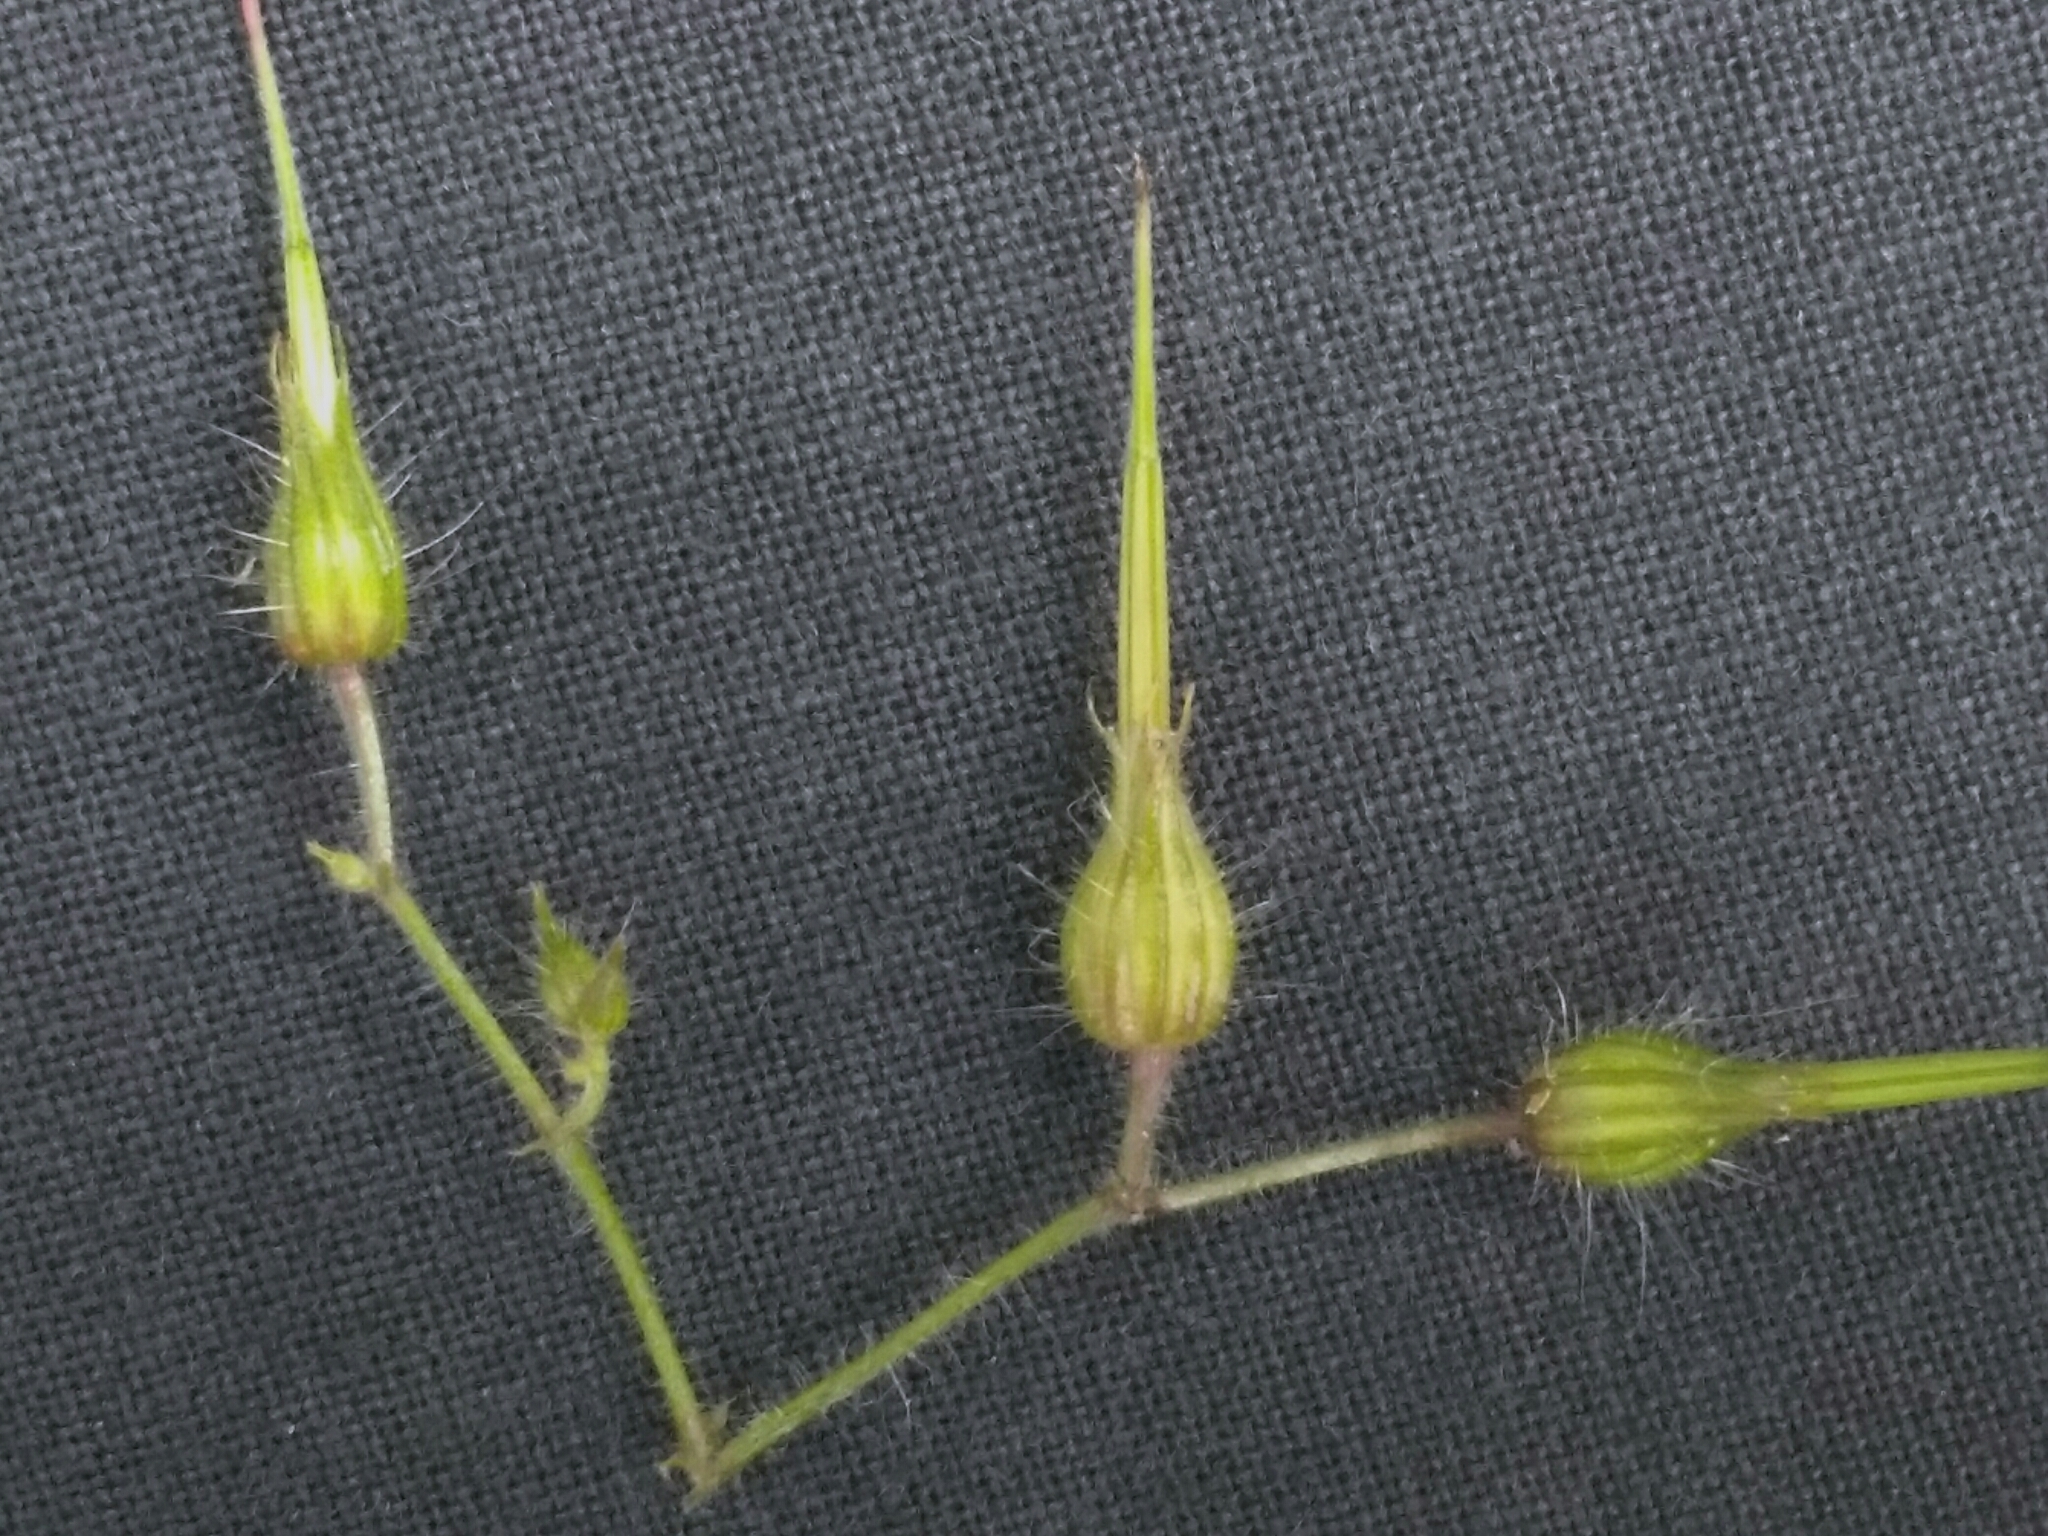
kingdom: Plantae
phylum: Tracheophyta
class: Magnoliopsida
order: Geraniales
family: Geraniaceae
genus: Geranium
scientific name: Geranium robertianum
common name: Herb-robert
